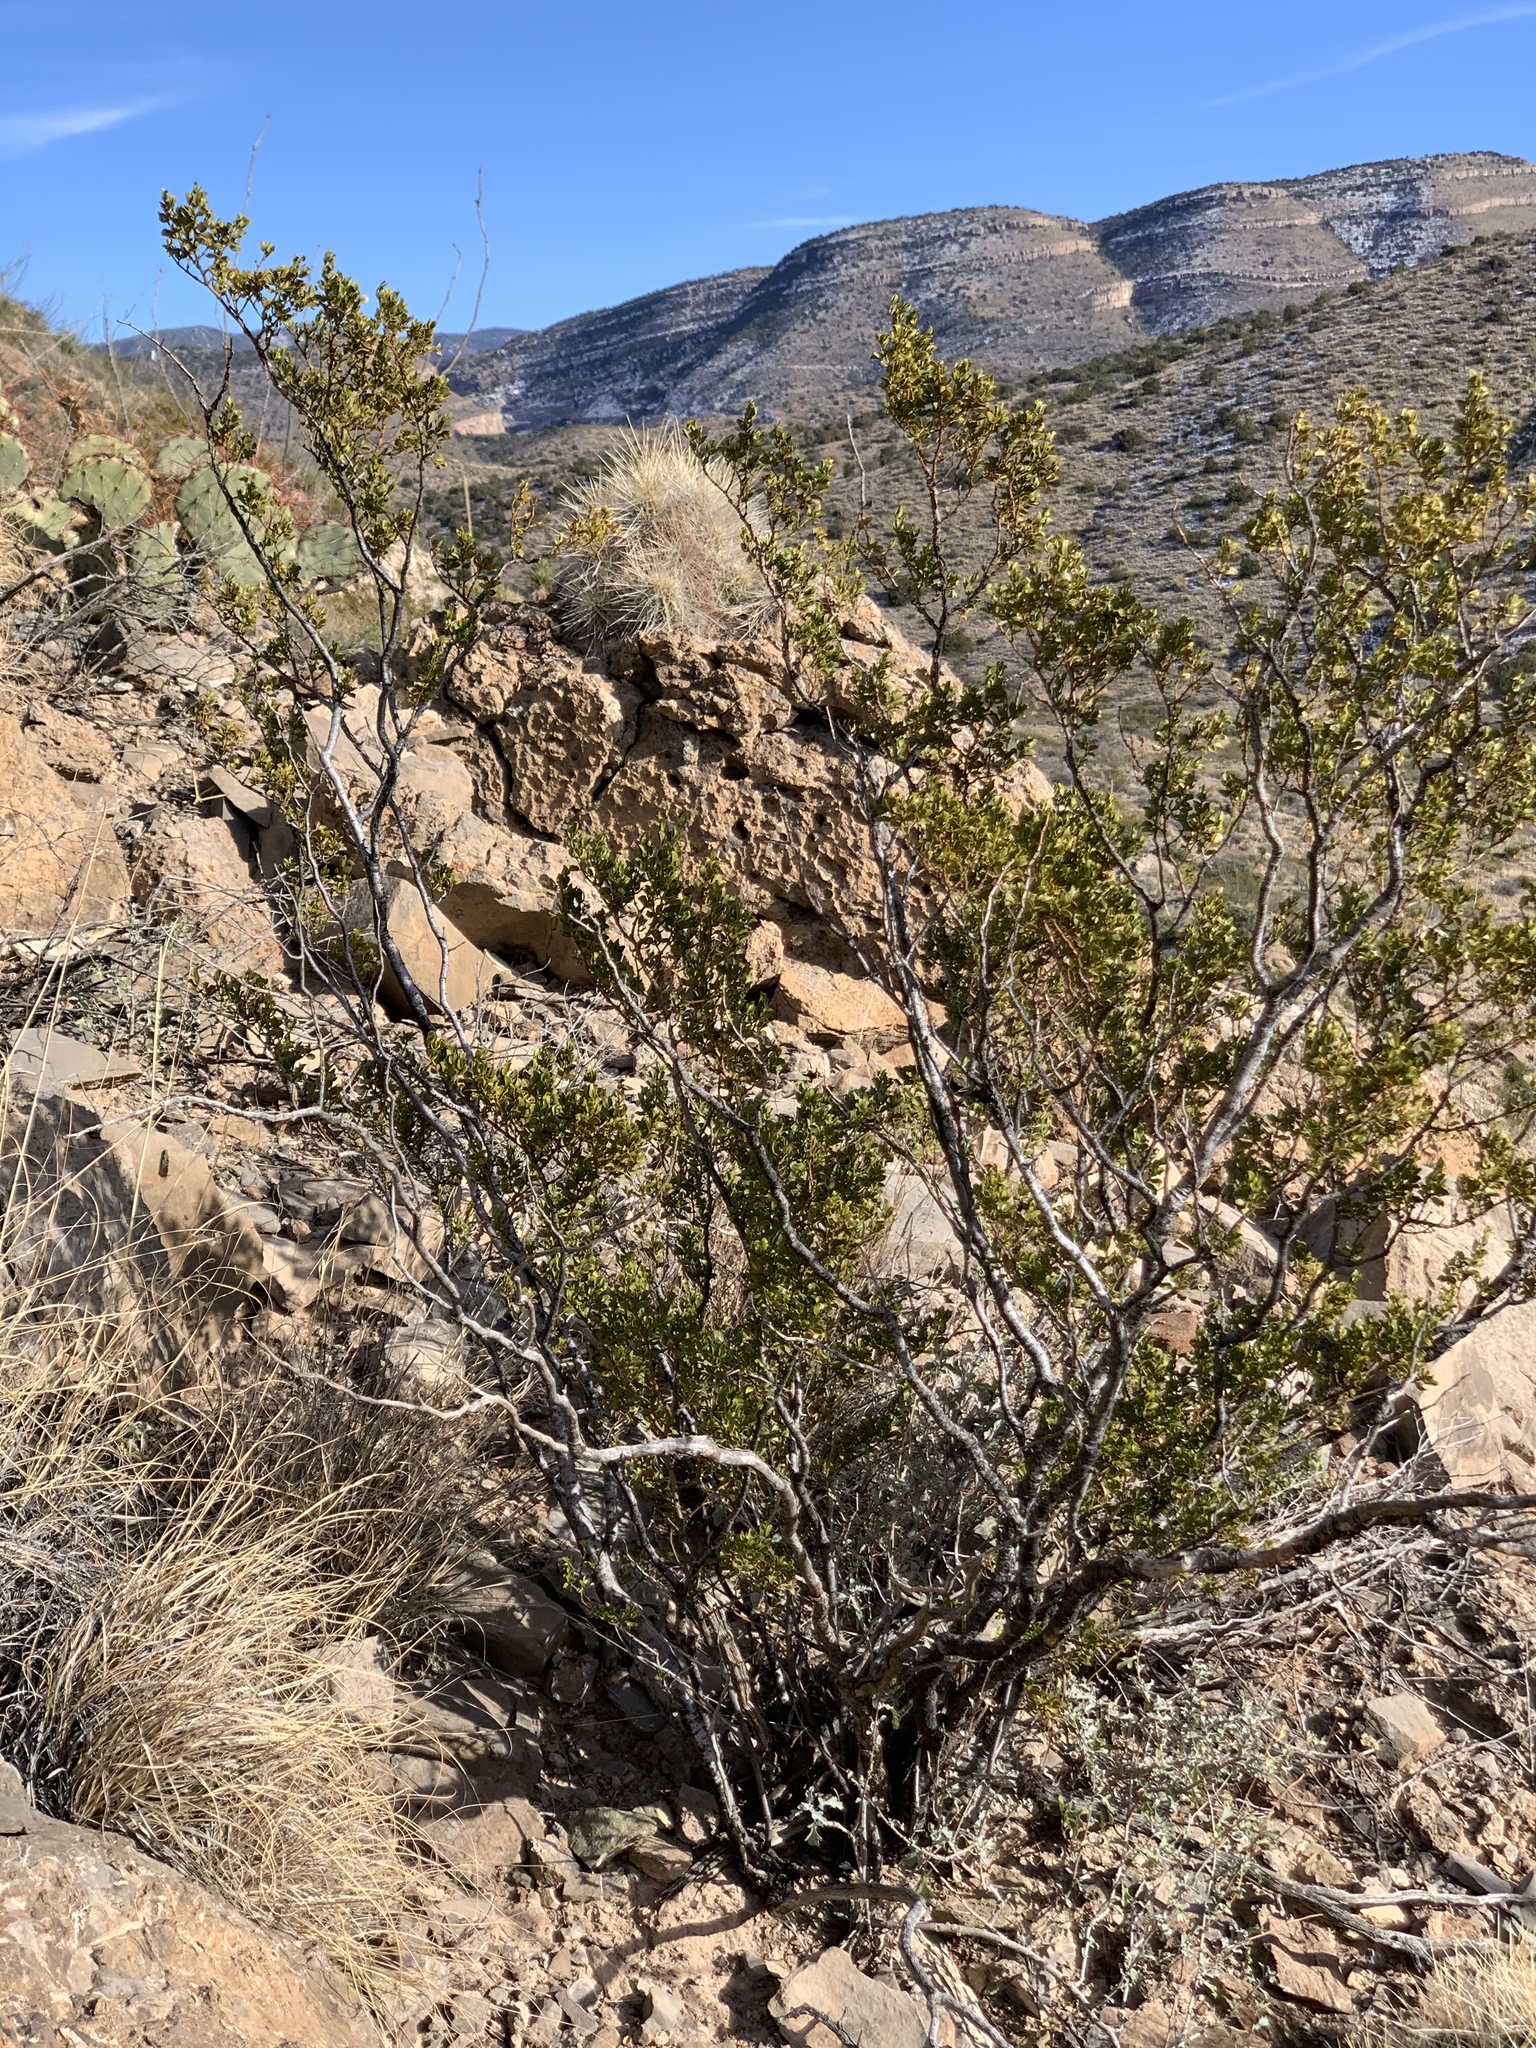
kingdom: Plantae
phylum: Tracheophyta
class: Magnoliopsida
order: Zygophyllales
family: Zygophyllaceae
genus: Larrea
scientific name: Larrea tridentata
